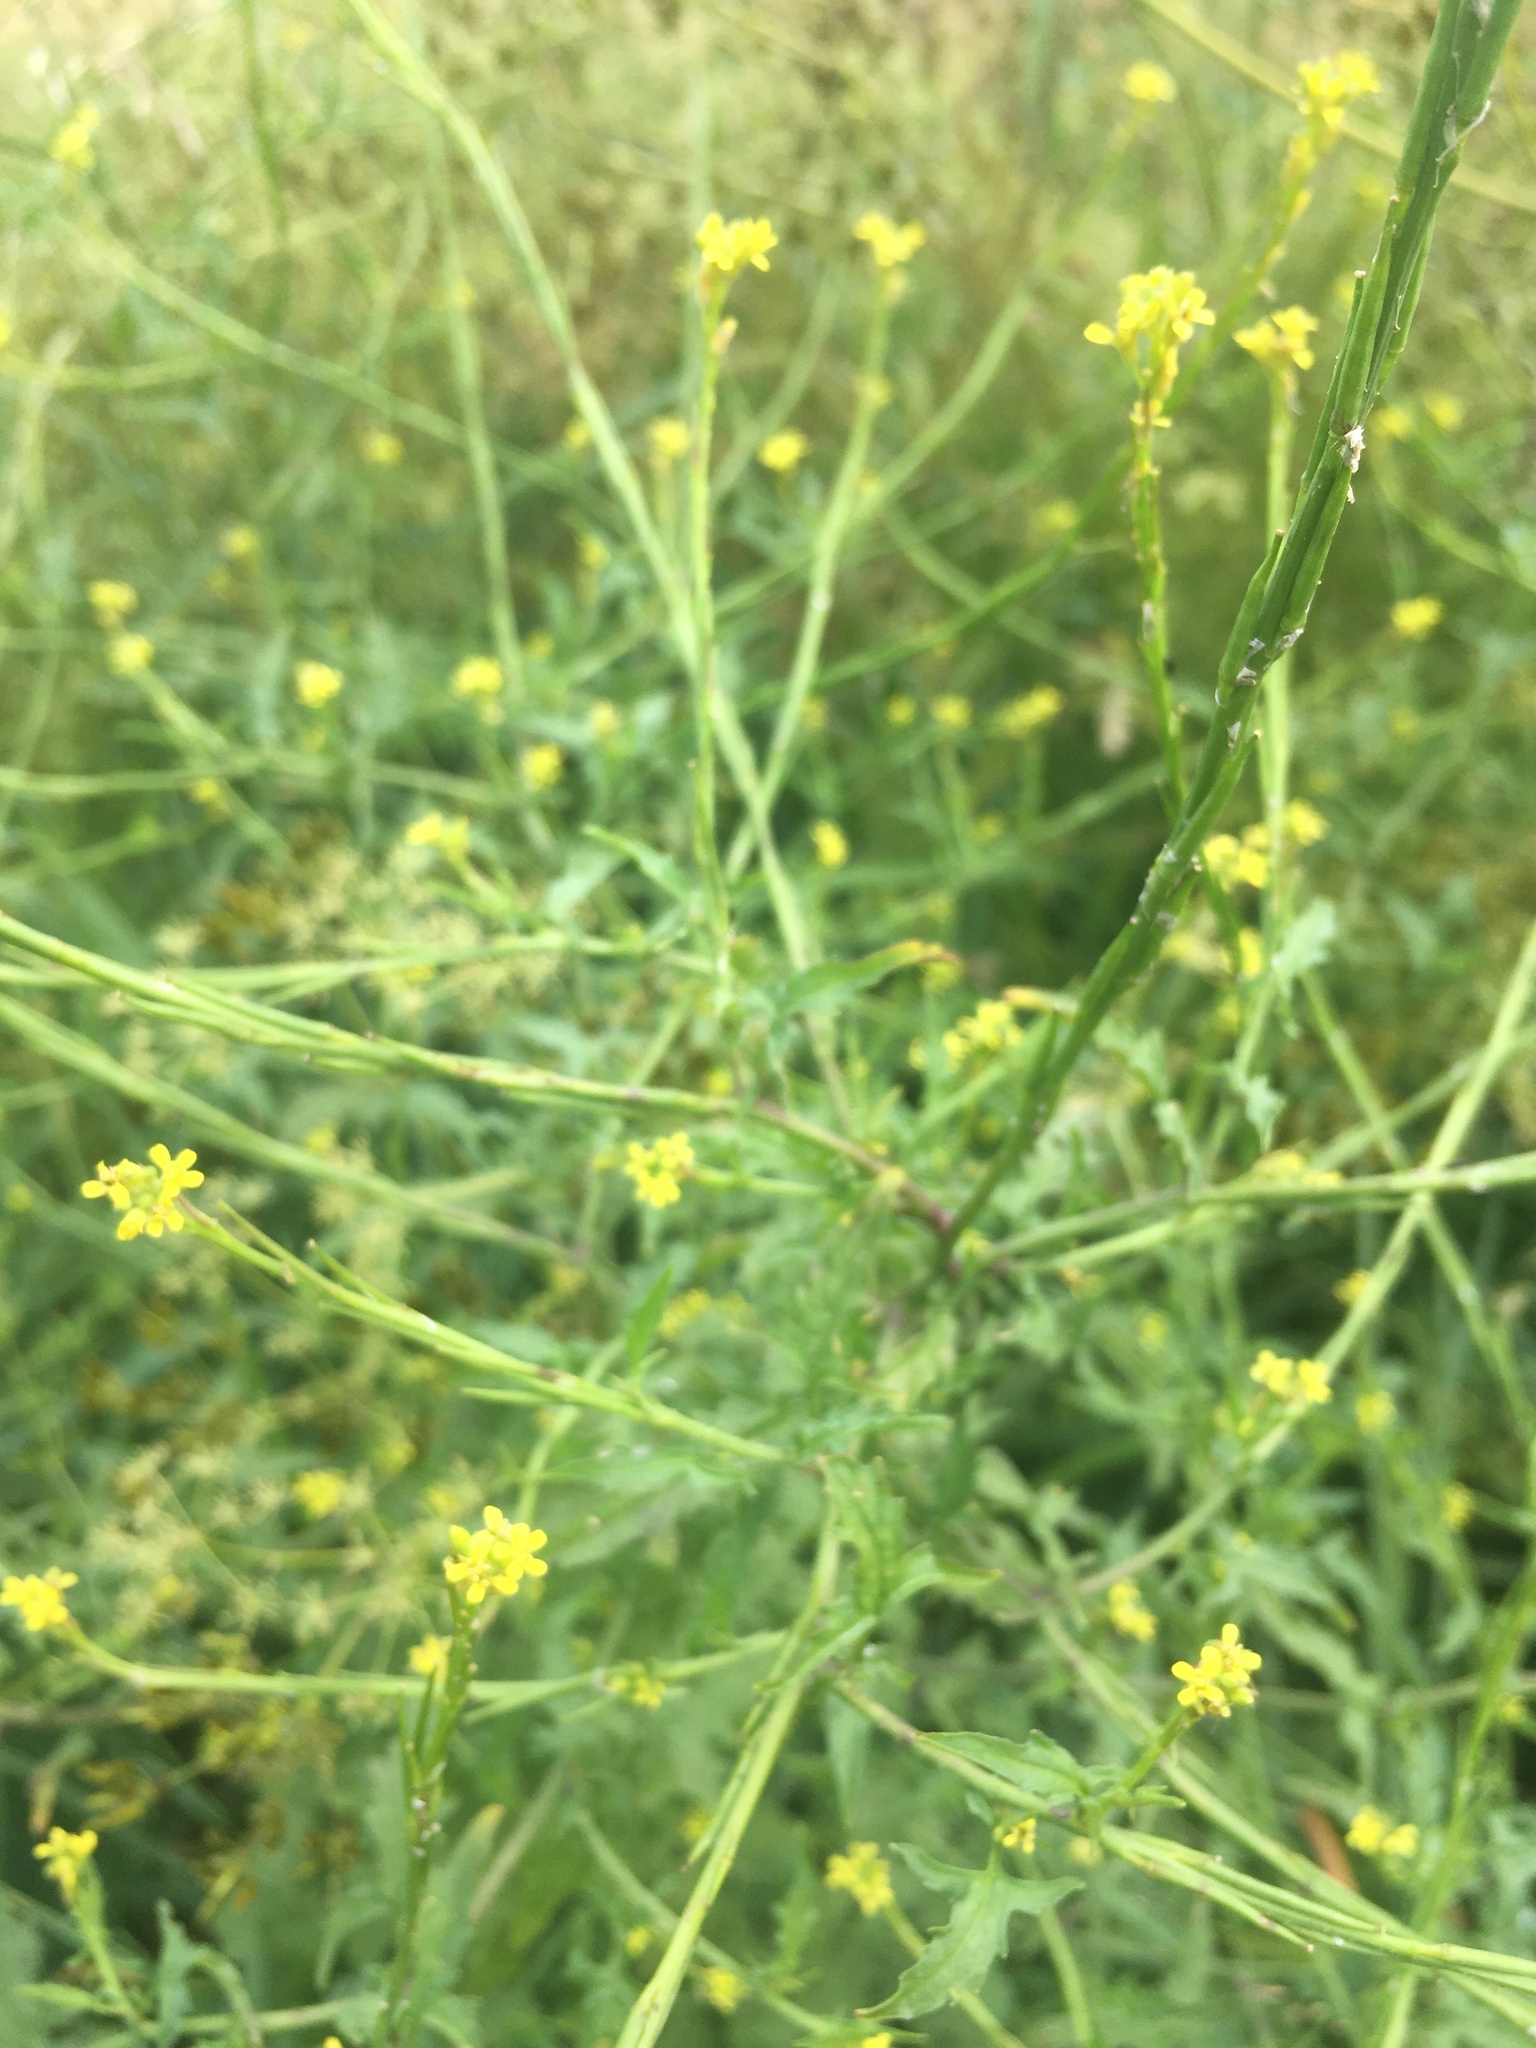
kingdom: Plantae
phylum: Tracheophyta
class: Magnoliopsida
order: Brassicales
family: Brassicaceae
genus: Sisymbrium
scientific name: Sisymbrium officinale
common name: Hedge mustard
